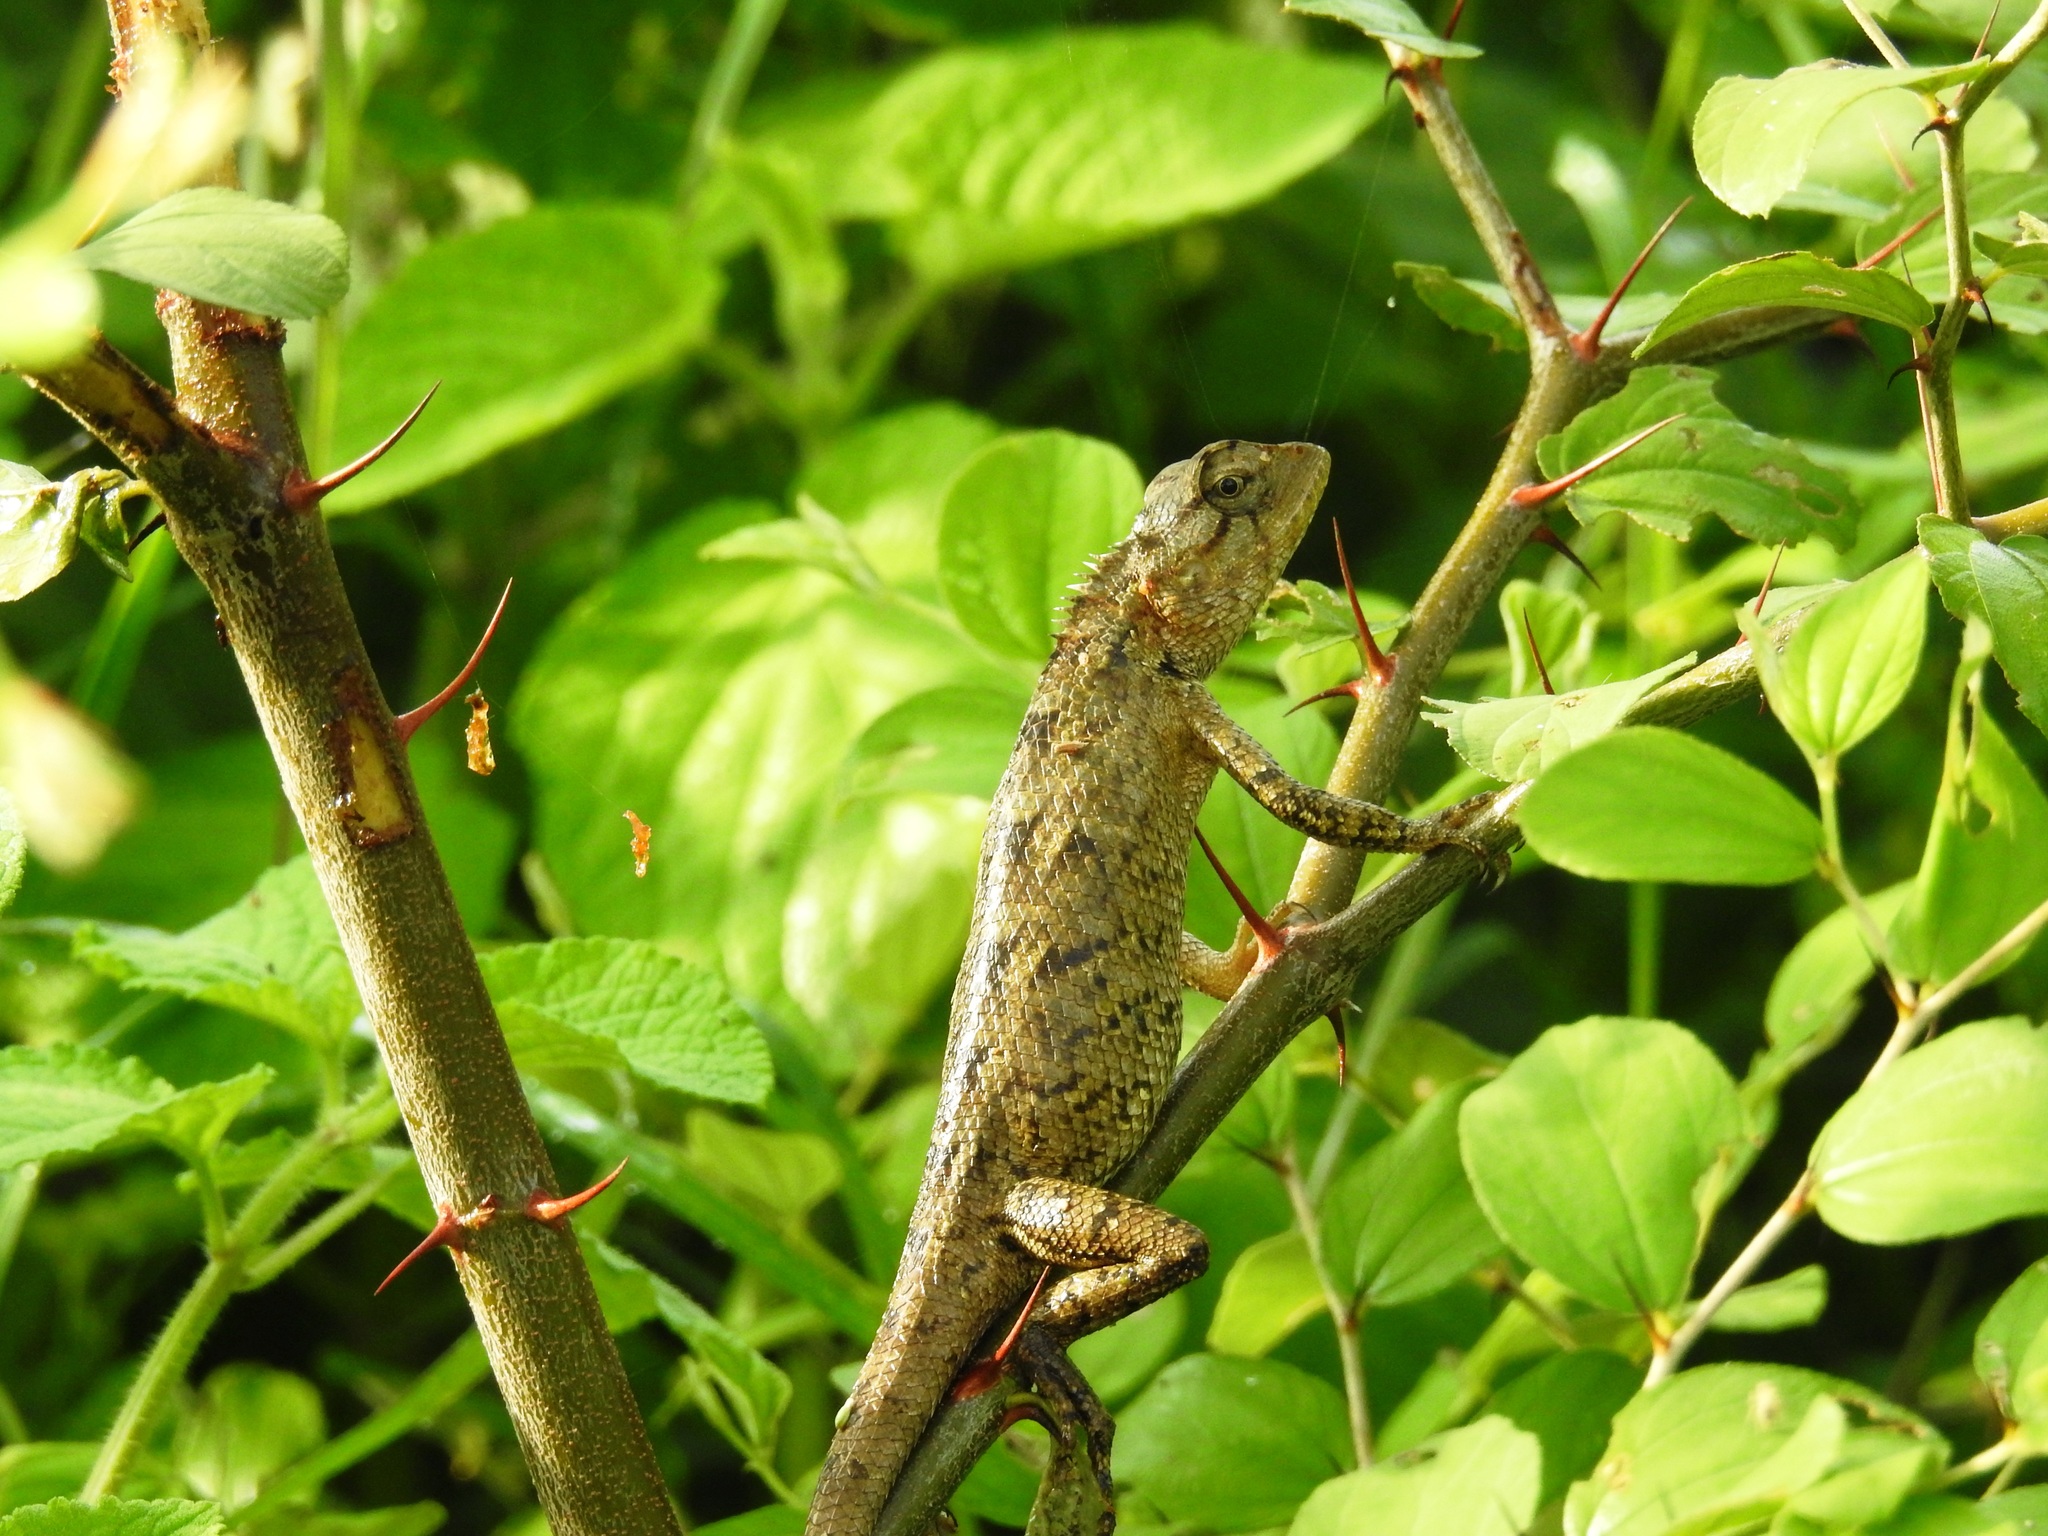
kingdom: Animalia
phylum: Chordata
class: Squamata
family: Agamidae
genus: Calotes
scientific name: Calotes versicolor
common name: Oriental garden lizard
